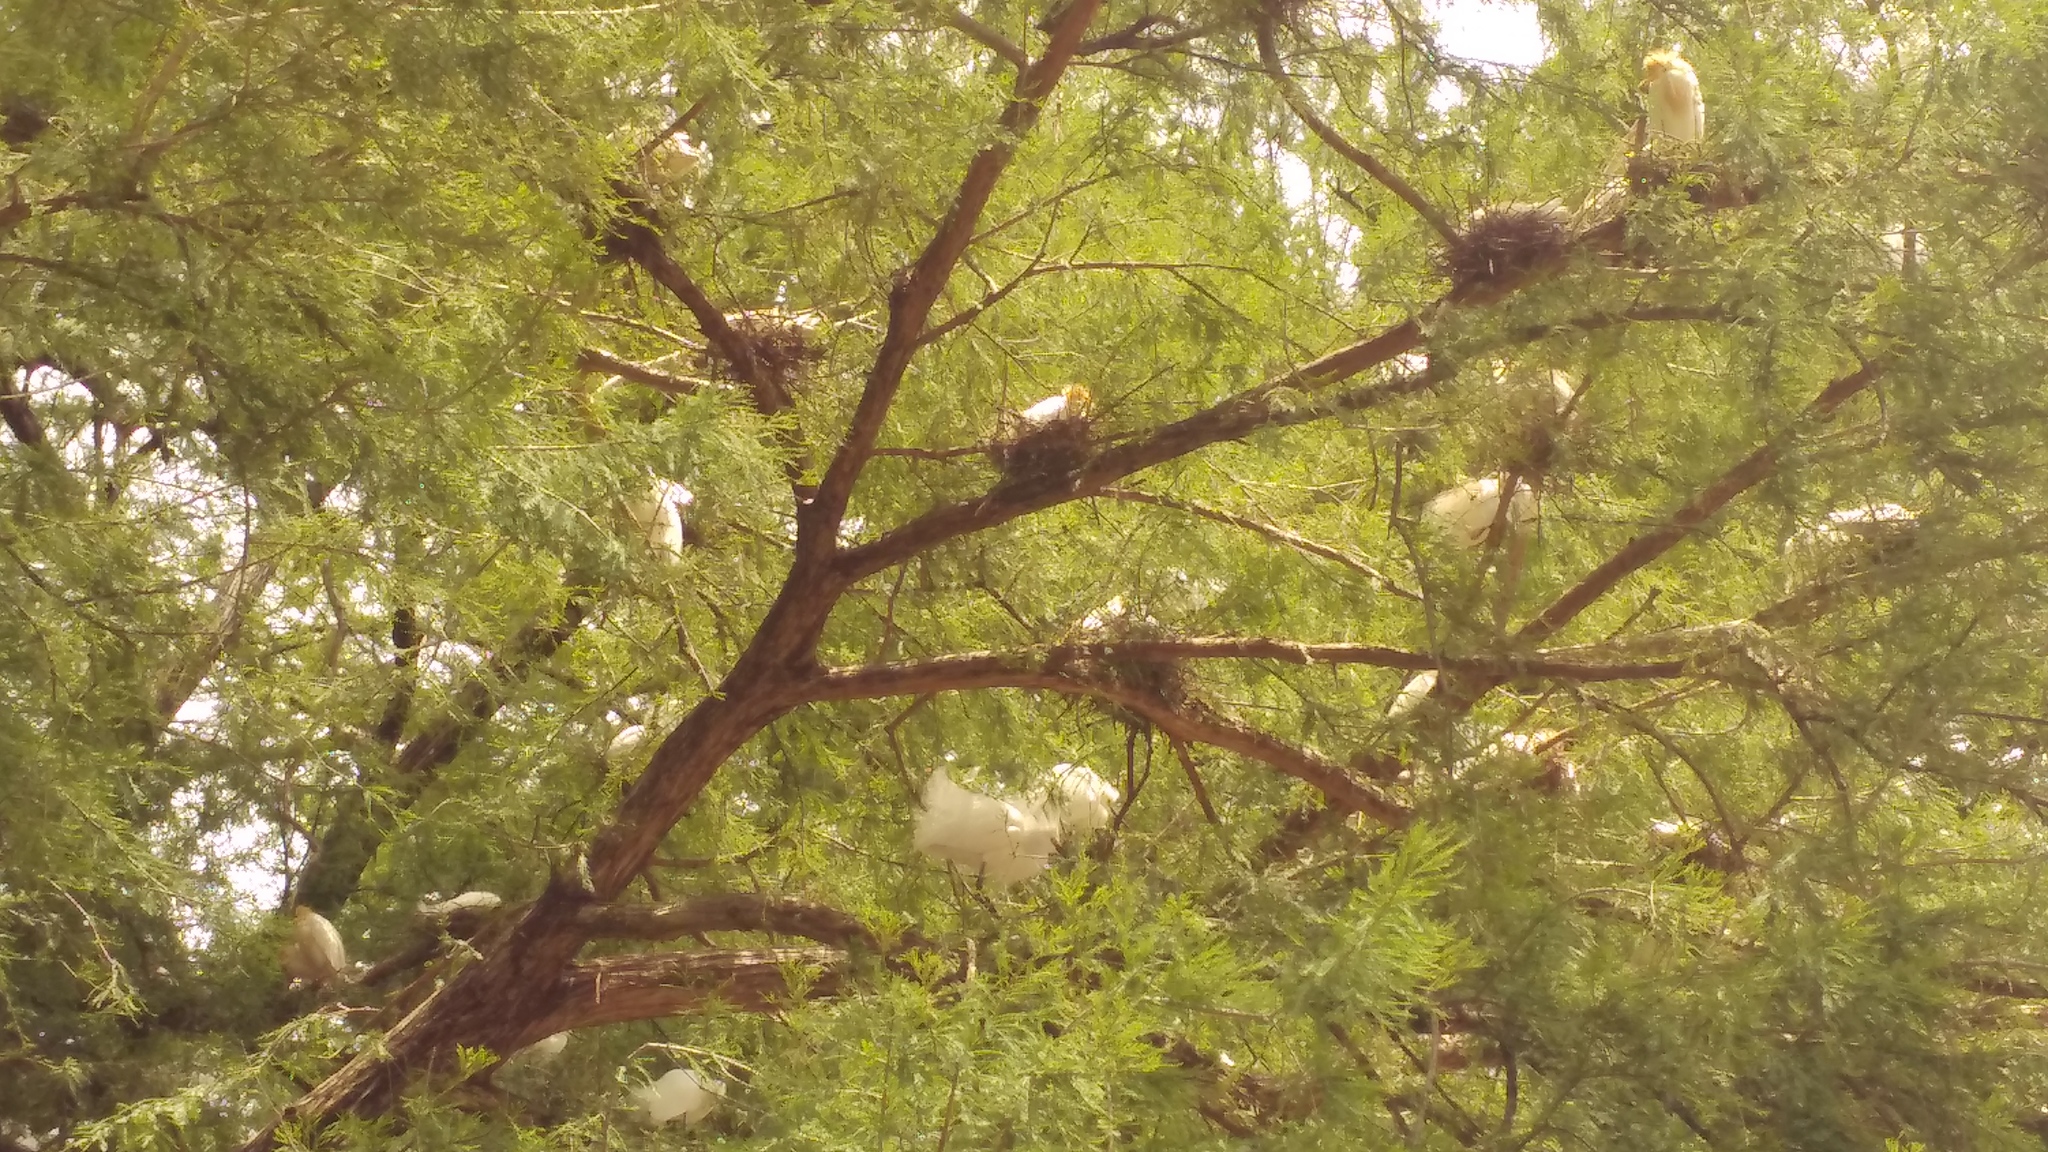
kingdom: Animalia
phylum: Chordata
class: Aves
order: Pelecaniformes
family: Ardeidae
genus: Egretta
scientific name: Egretta thula
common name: Snowy egret
